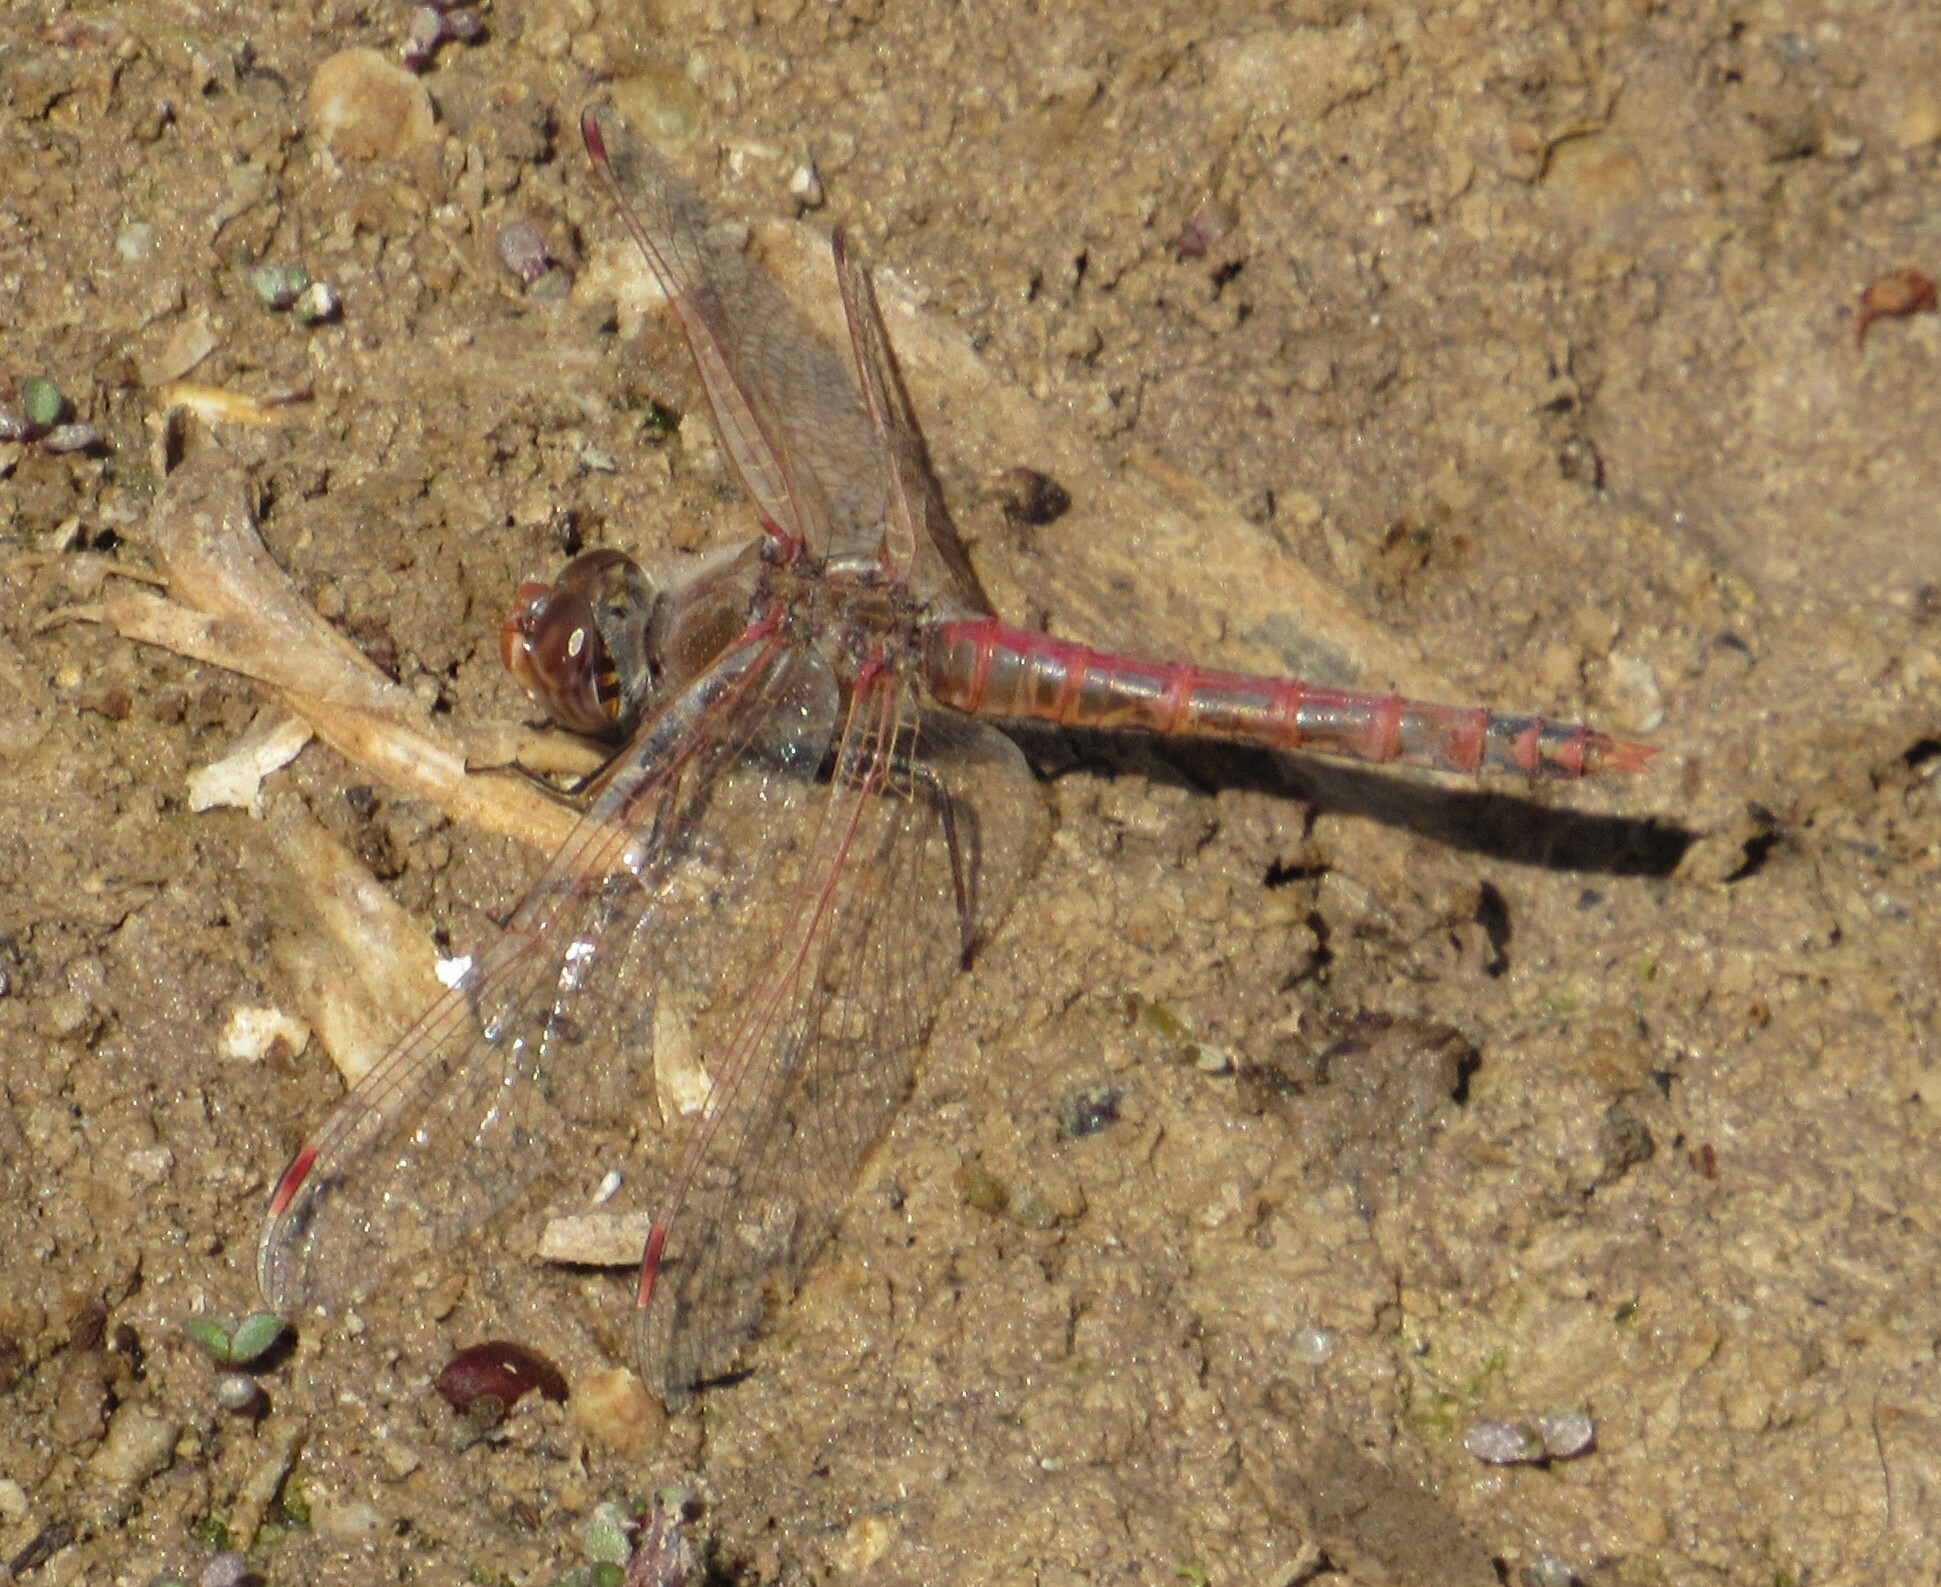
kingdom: Animalia
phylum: Arthropoda
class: Insecta
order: Odonata
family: Libellulidae
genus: Sympetrum
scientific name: Sympetrum corruptum
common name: Variegated meadowhawk
